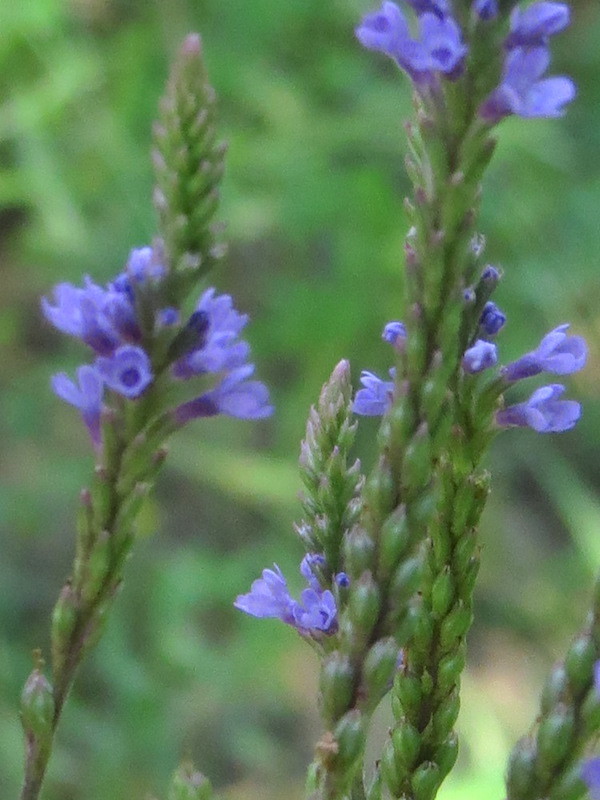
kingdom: Plantae
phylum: Tracheophyta
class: Magnoliopsida
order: Lamiales
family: Verbenaceae
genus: Verbena
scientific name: Verbena hastata
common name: American blue vervain
